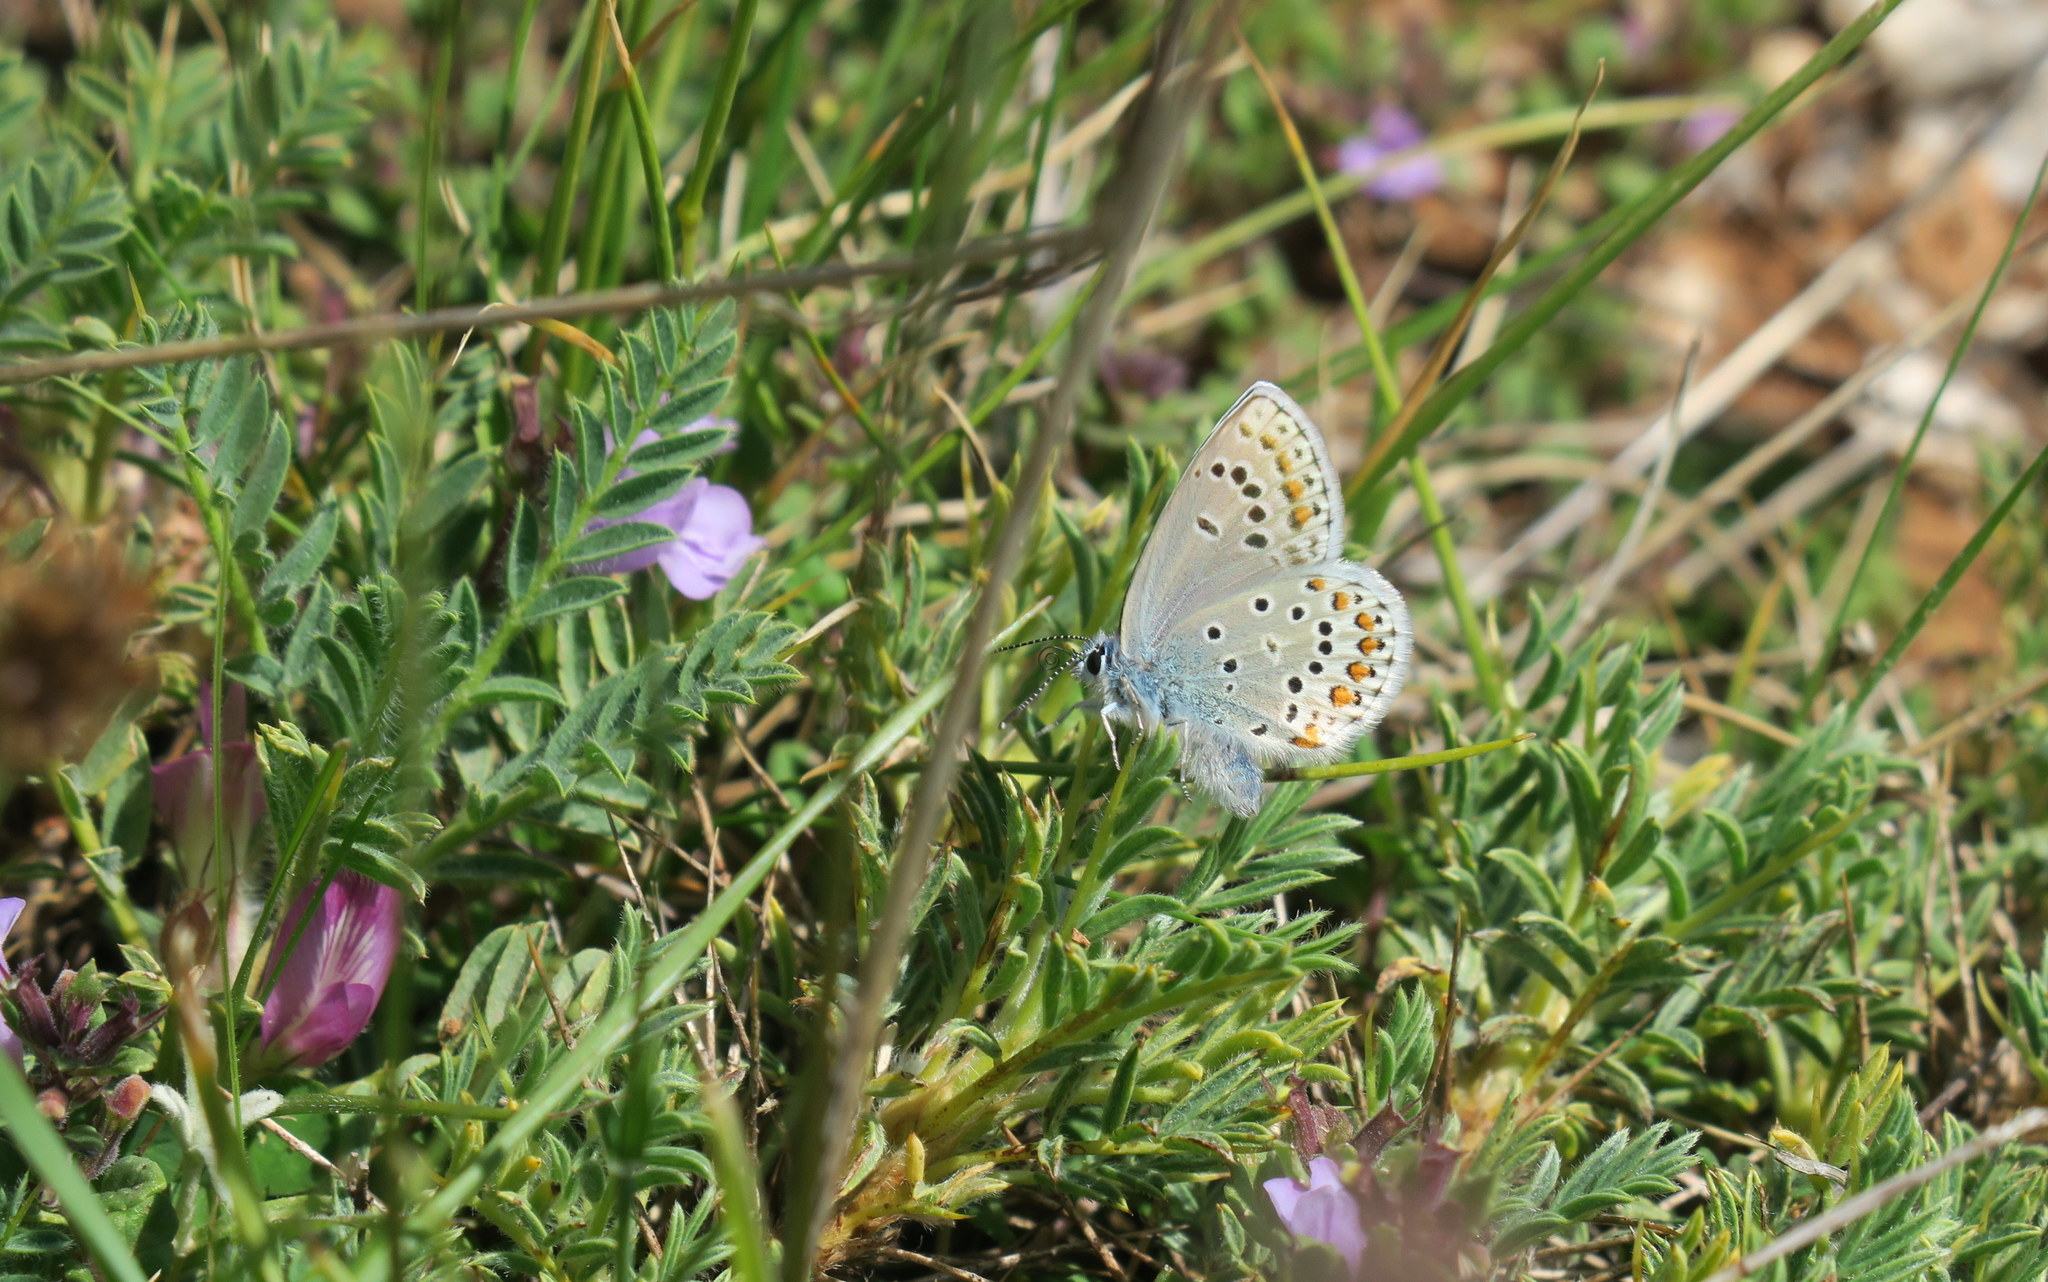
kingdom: Animalia
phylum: Arthropoda
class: Insecta
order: Lepidoptera
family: Lycaenidae
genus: Plebejus
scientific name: Plebejus pylaon
